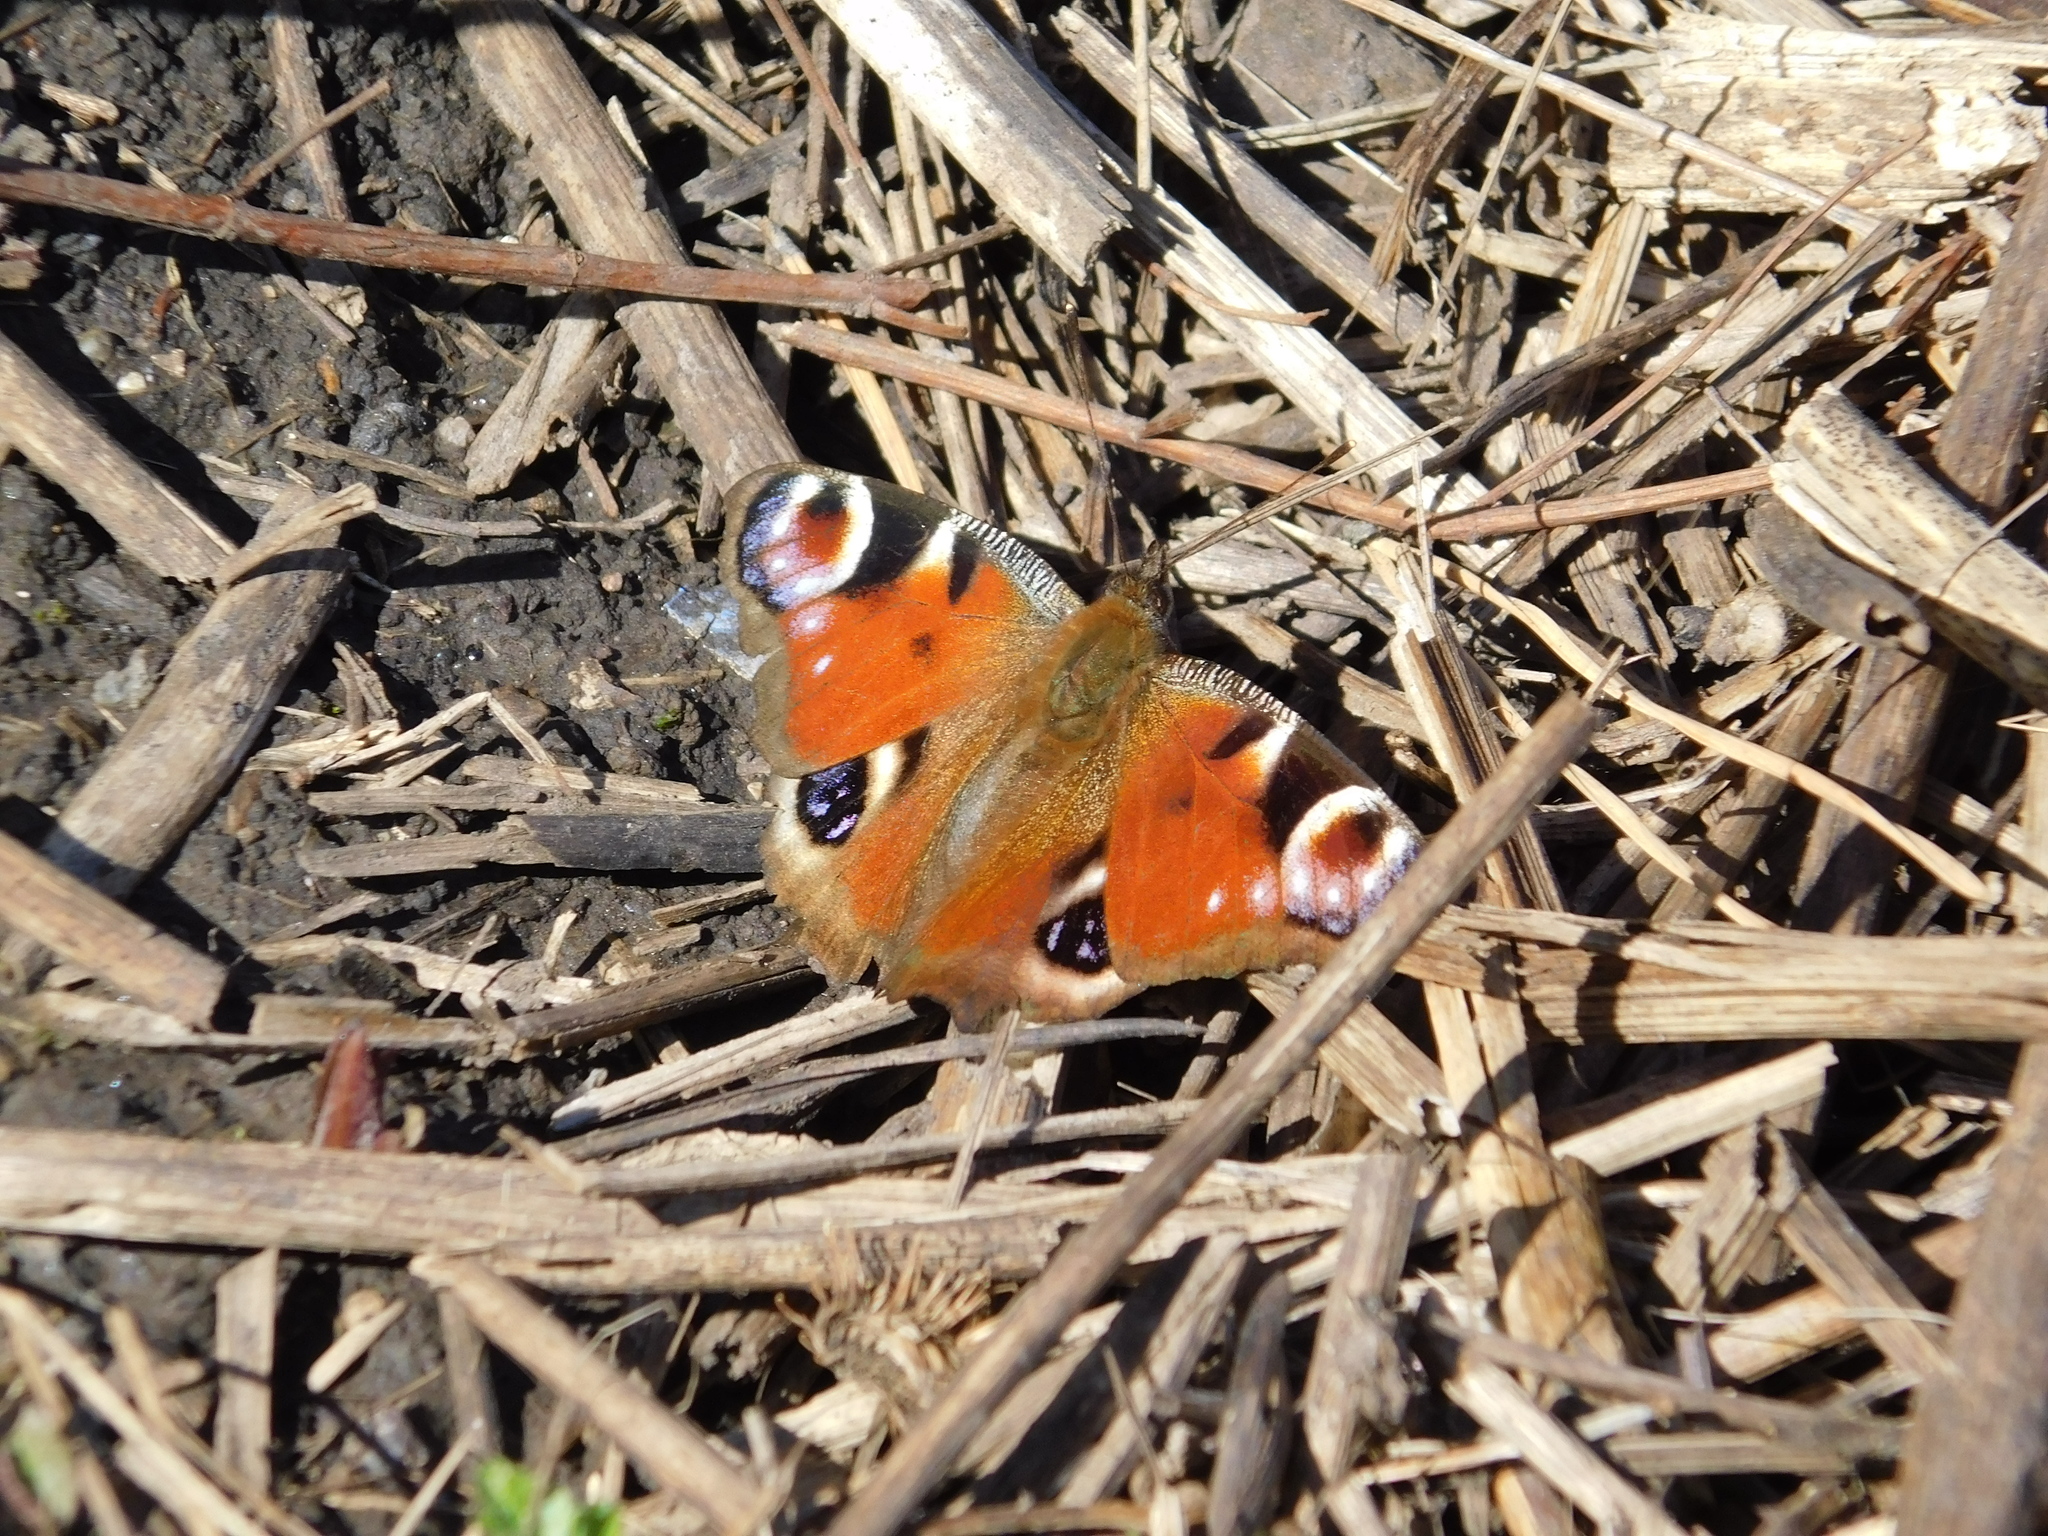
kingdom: Animalia
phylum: Arthropoda
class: Insecta
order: Lepidoptera
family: Nymphalidae
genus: Aglais
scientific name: Aglais io
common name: Peacock
